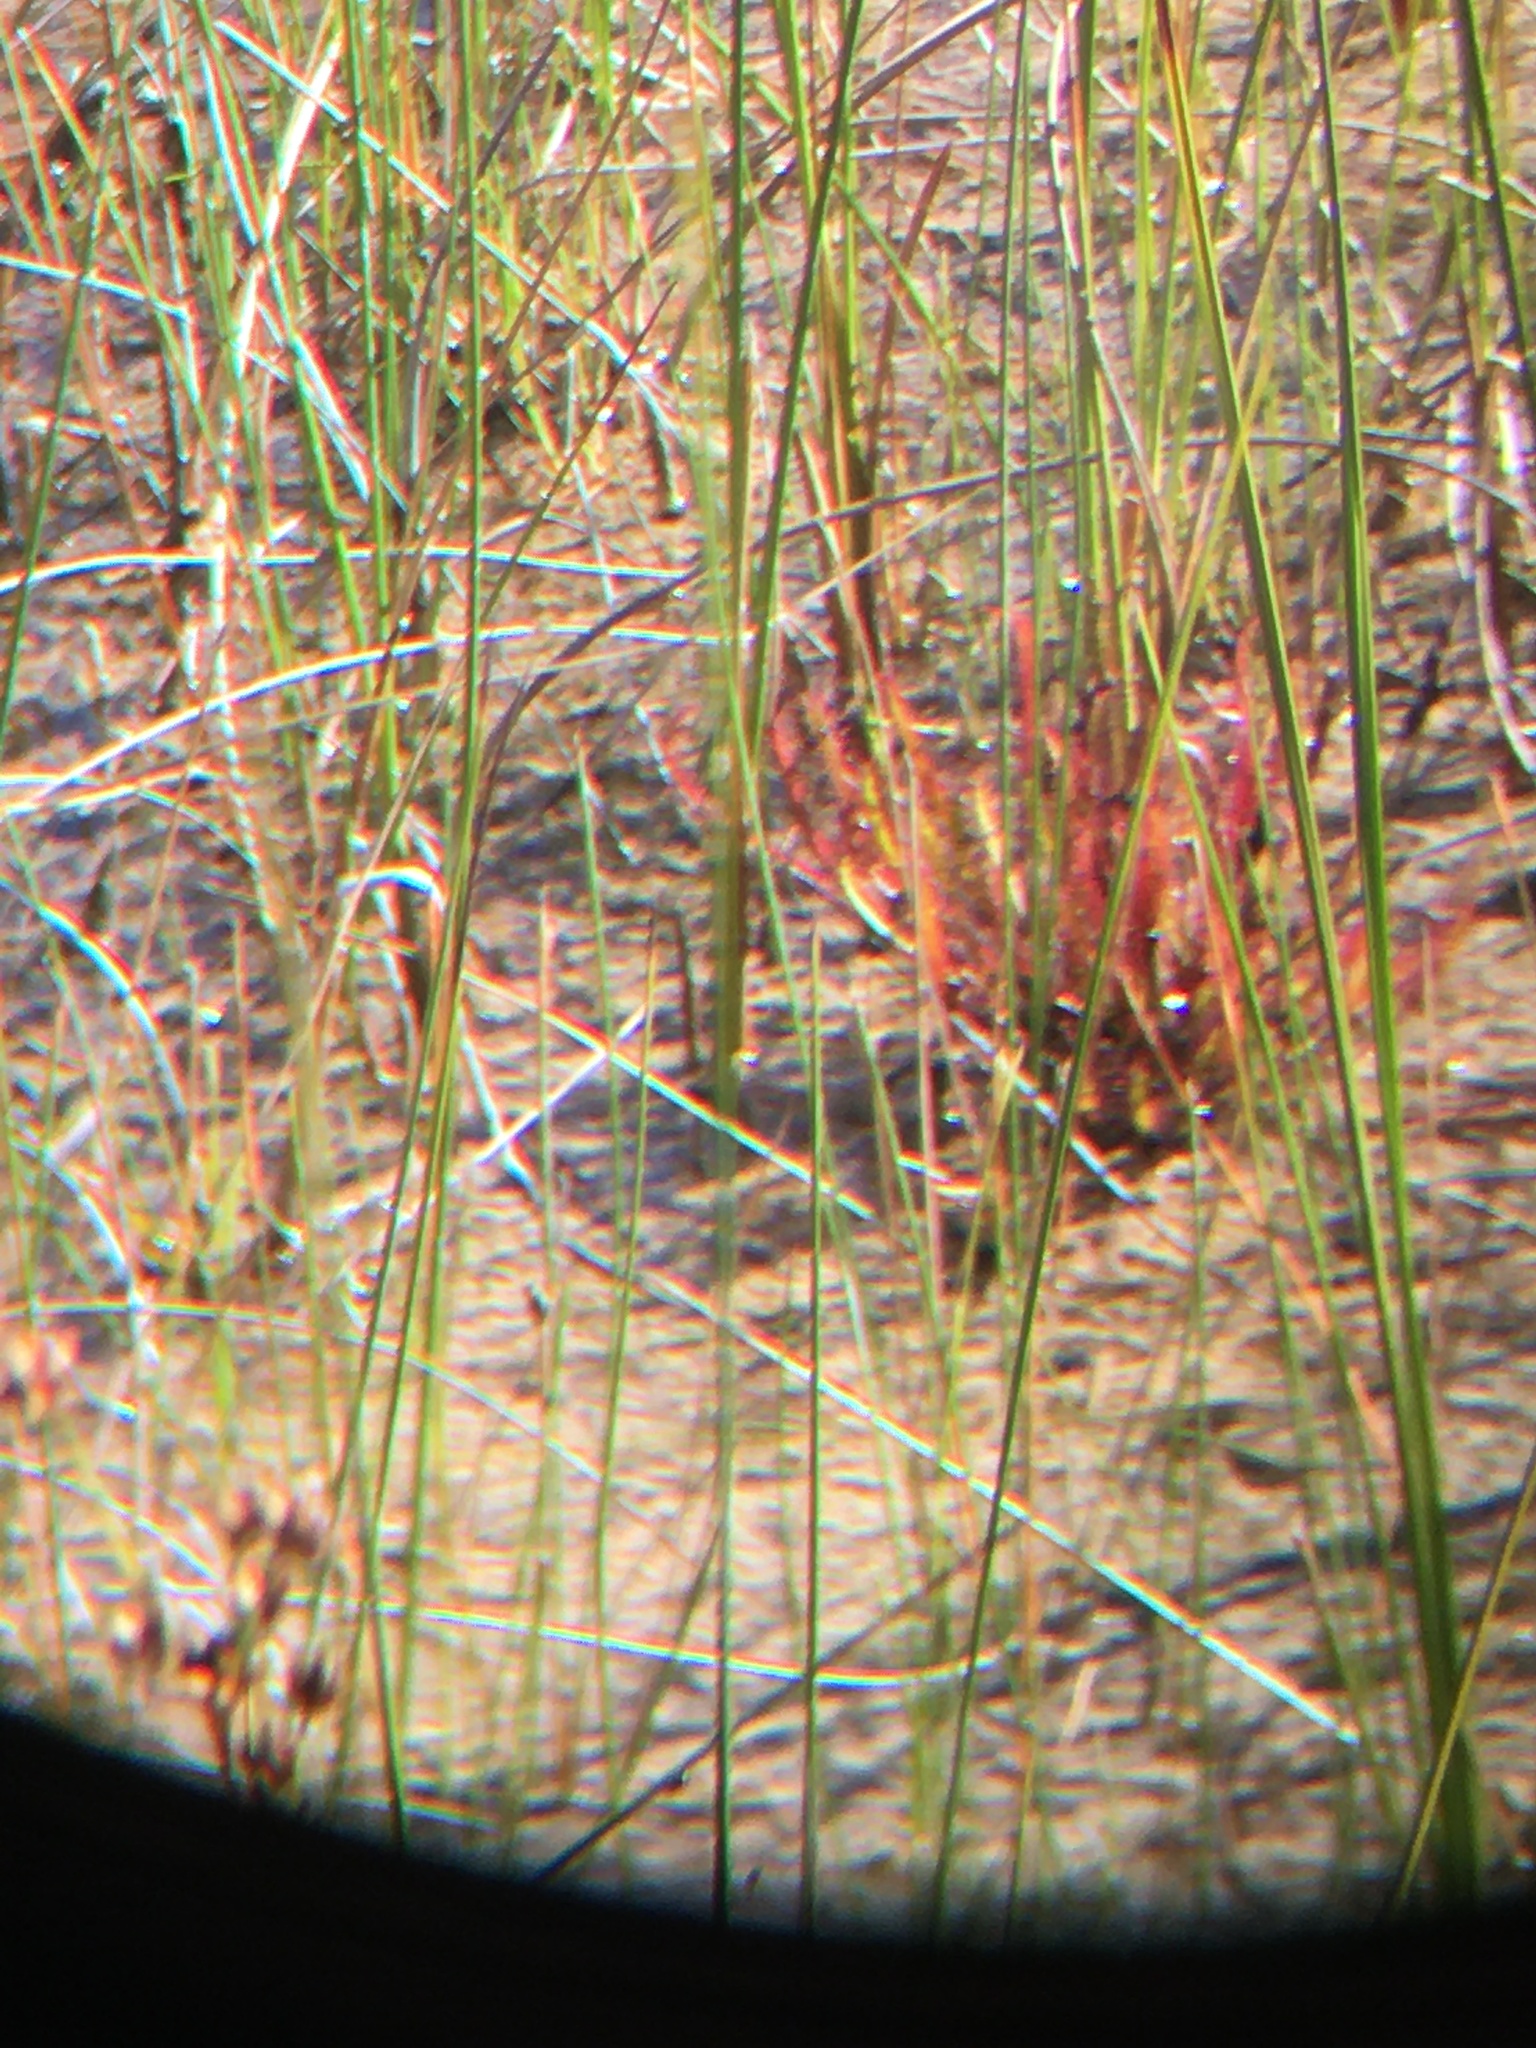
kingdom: Plantae
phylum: Tracheophyta
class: Magnoliopsida
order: Caryophyllales
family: Droseraceae
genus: Drosera
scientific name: Drosera linearis
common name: Linear-leaved sundew
